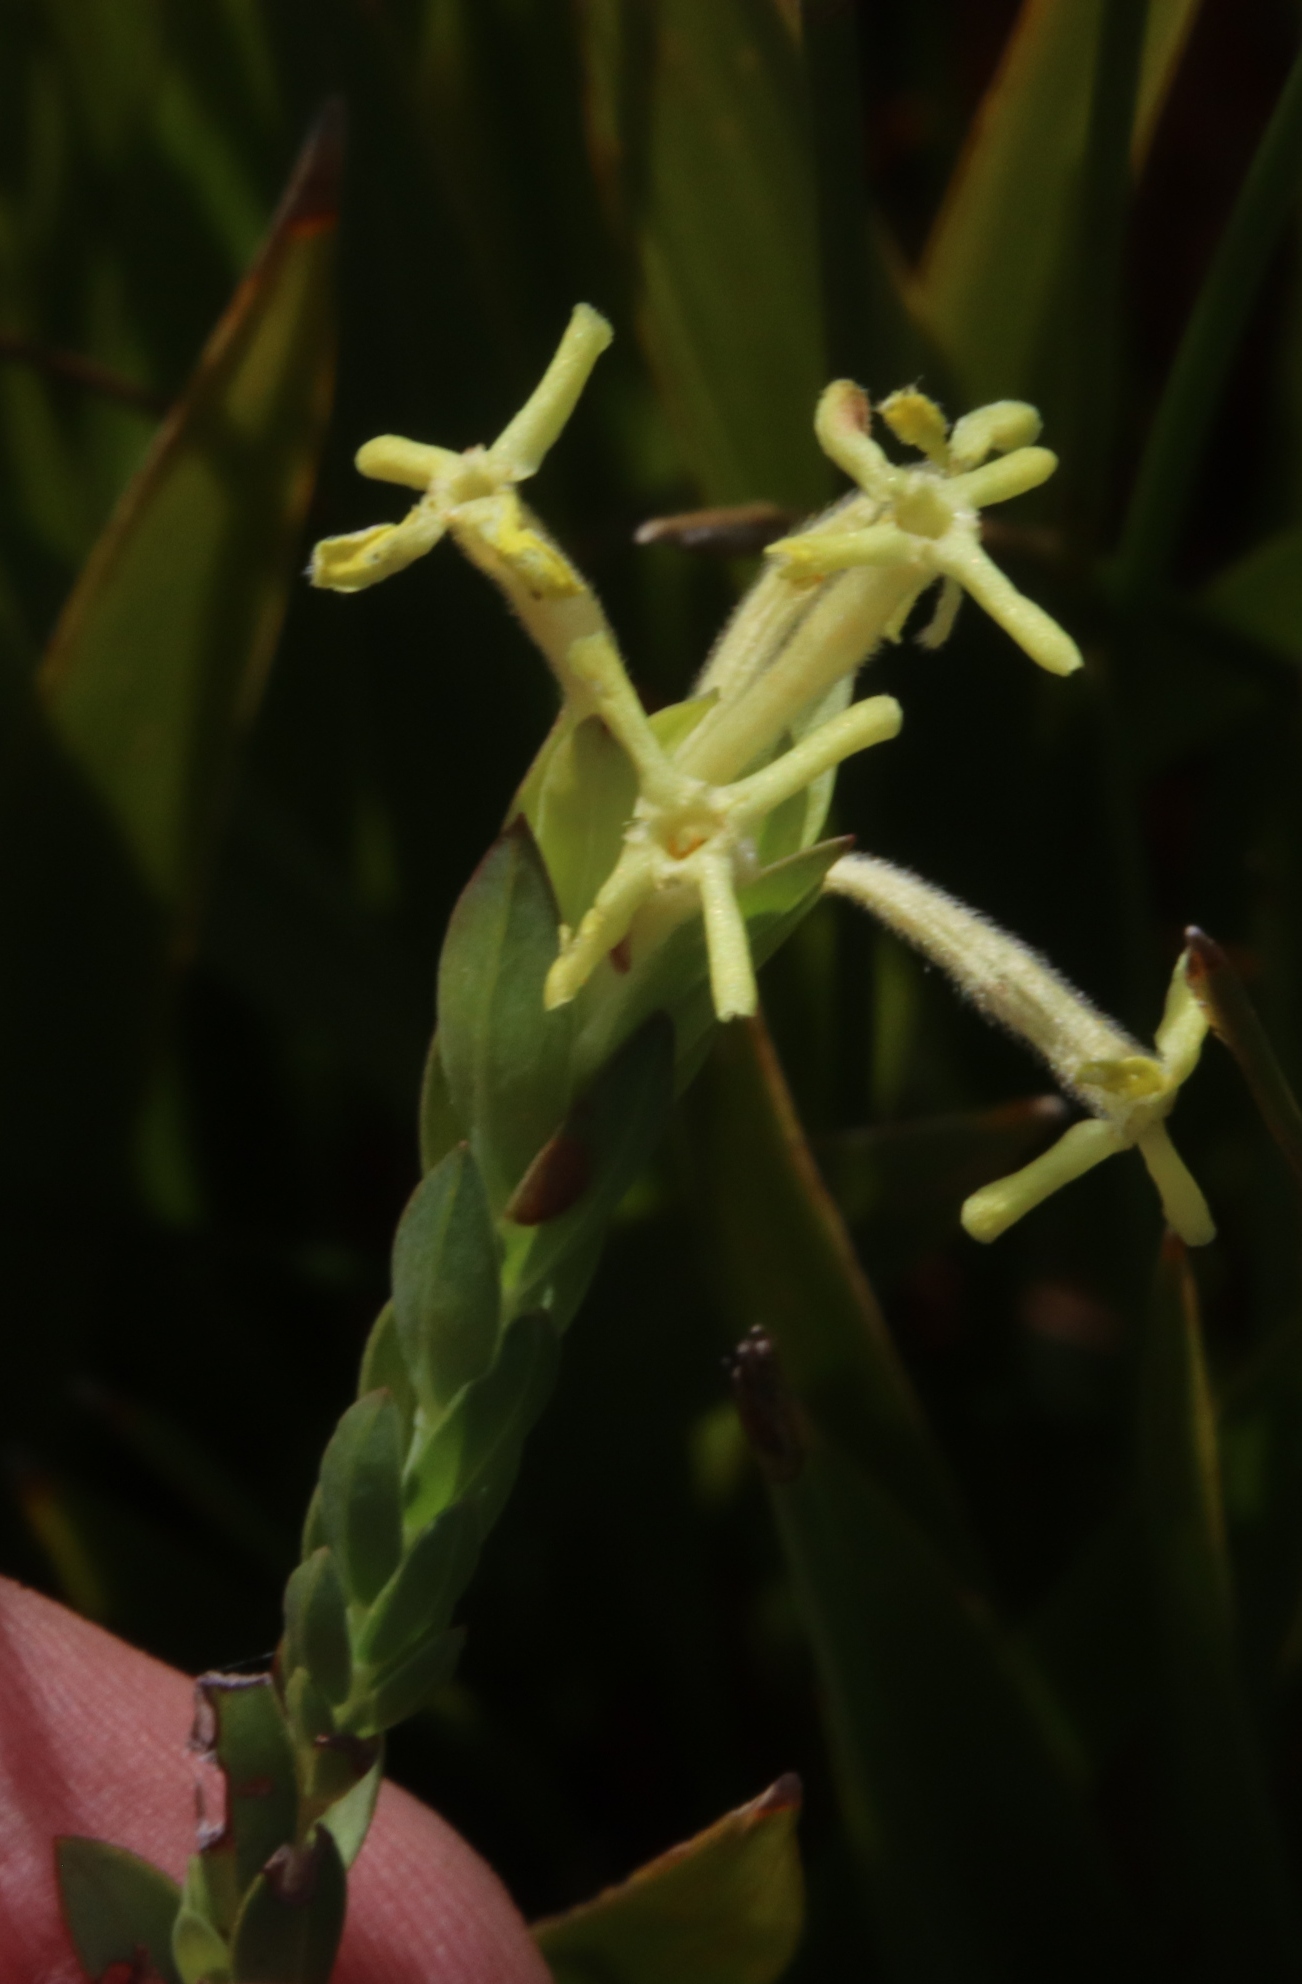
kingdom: Plantae
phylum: Tracheophyta
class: Magnoliopsida
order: Malvales
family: Thymelaeaceae
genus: Gnidia
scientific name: Gnidia oppositifolia
